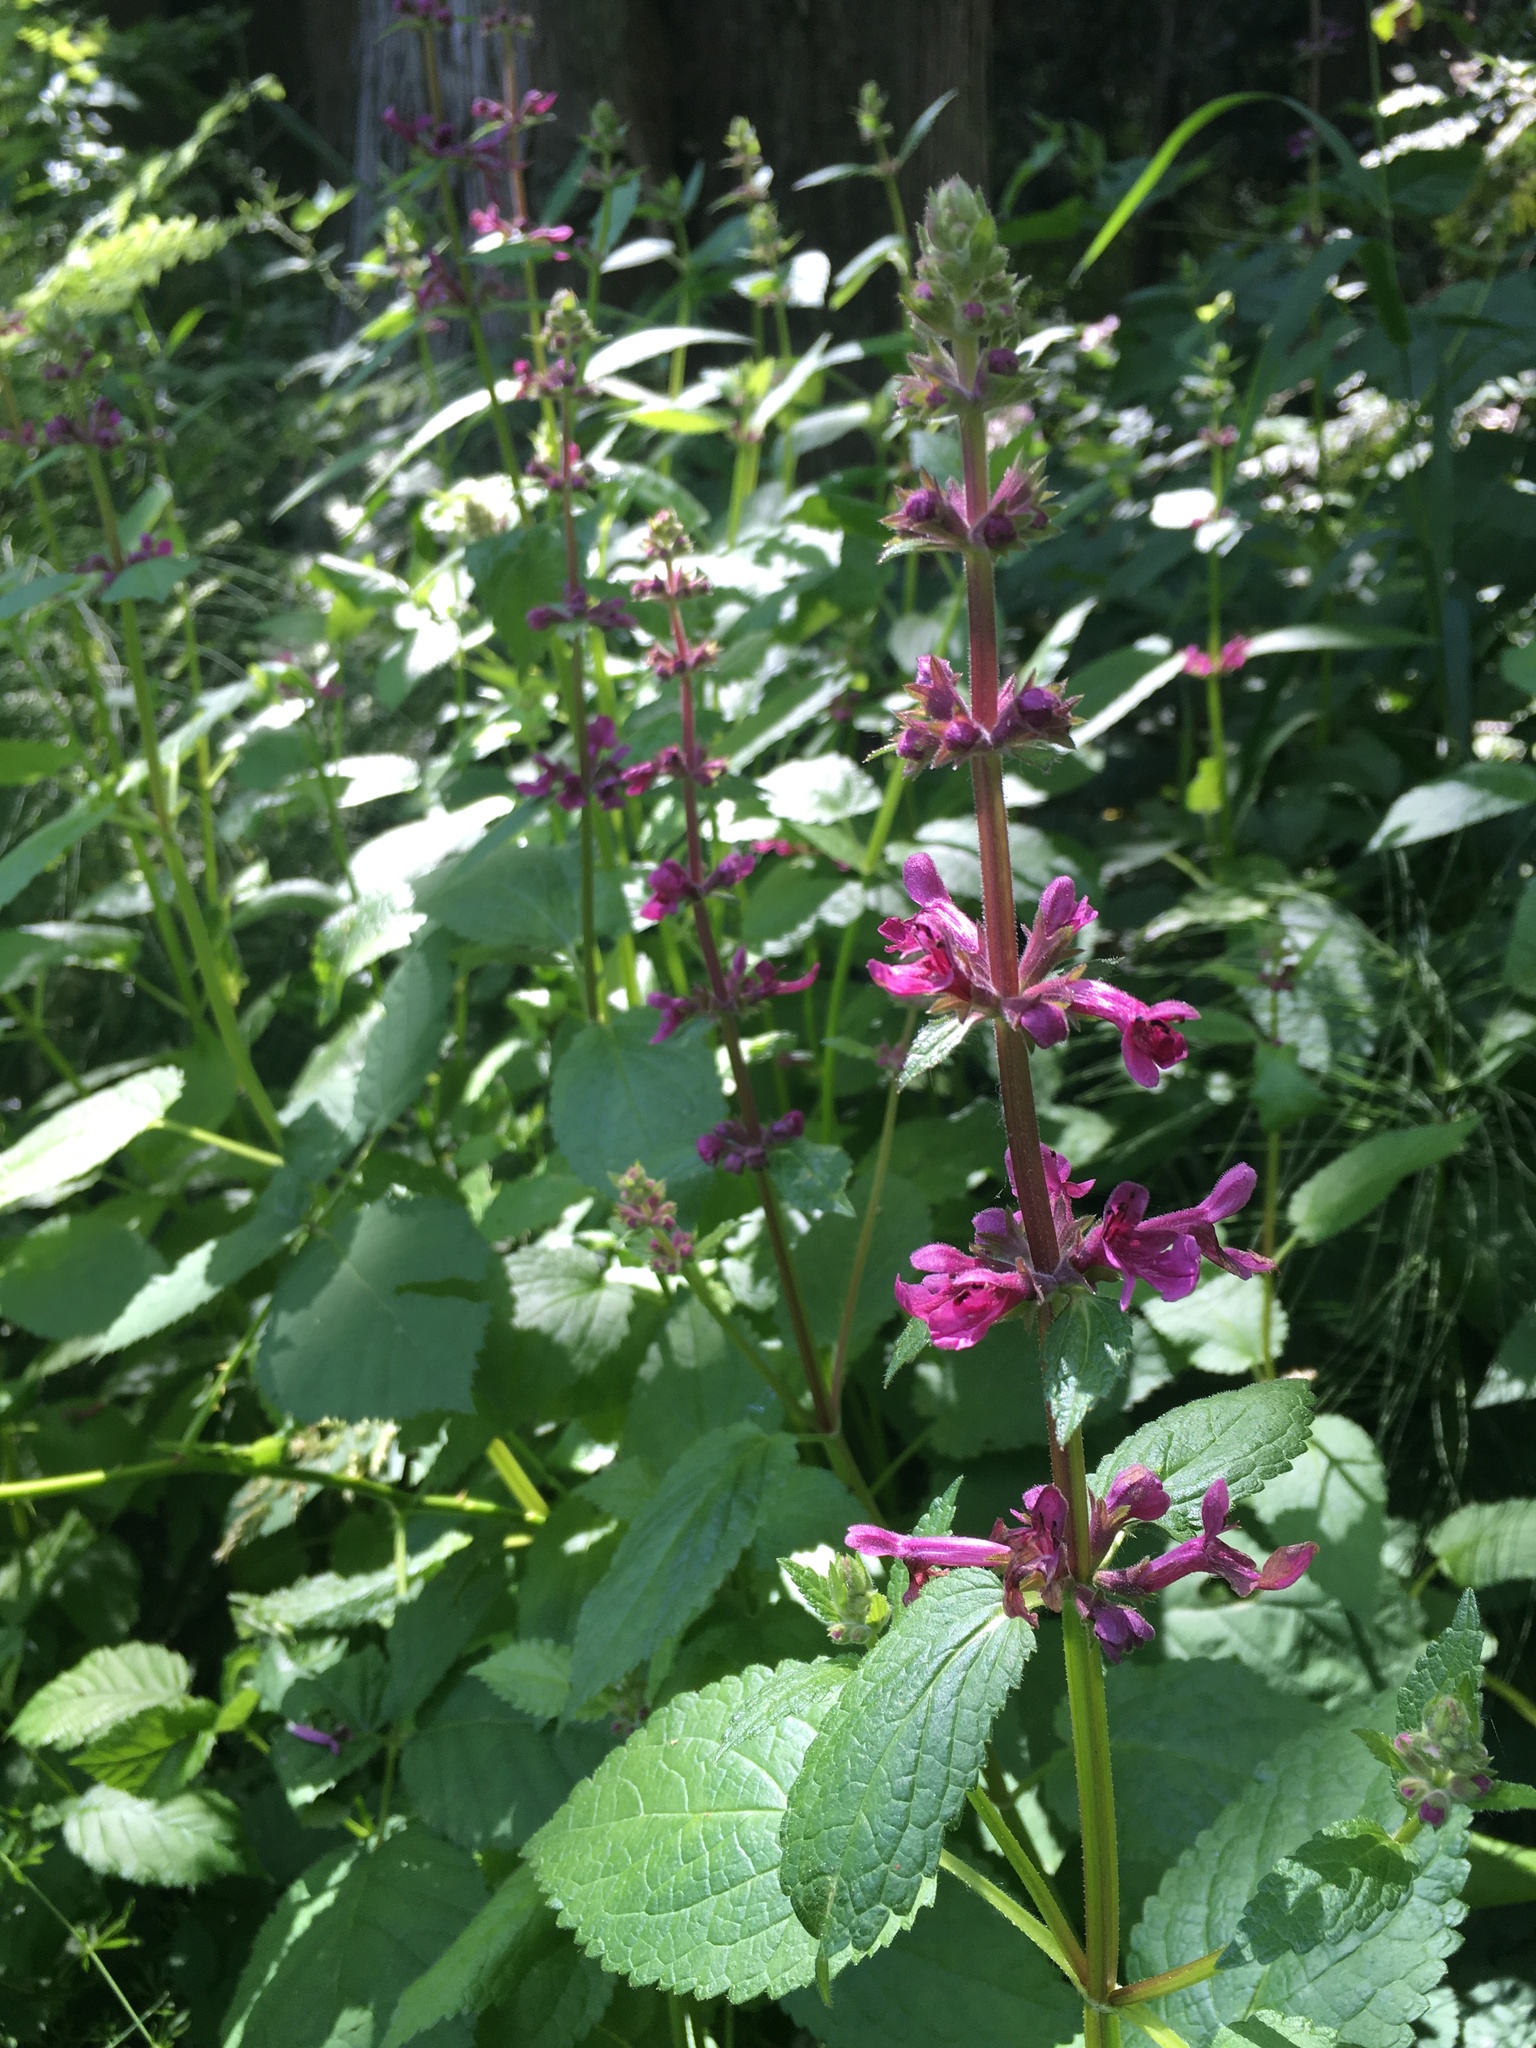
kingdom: Plantae
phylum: Tracheophyta
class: Magnoliopsida
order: Lamiales
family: Lamiaceae
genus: Stachys
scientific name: Stachys chamissonis
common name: Coastal hedge-nettle
